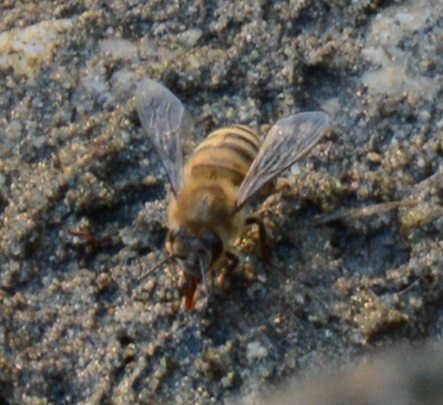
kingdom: Animalia
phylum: Arthropoda
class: Insecta
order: Hymenoptera
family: Apidae
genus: Apis
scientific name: Apis mellifera
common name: Honey bee
